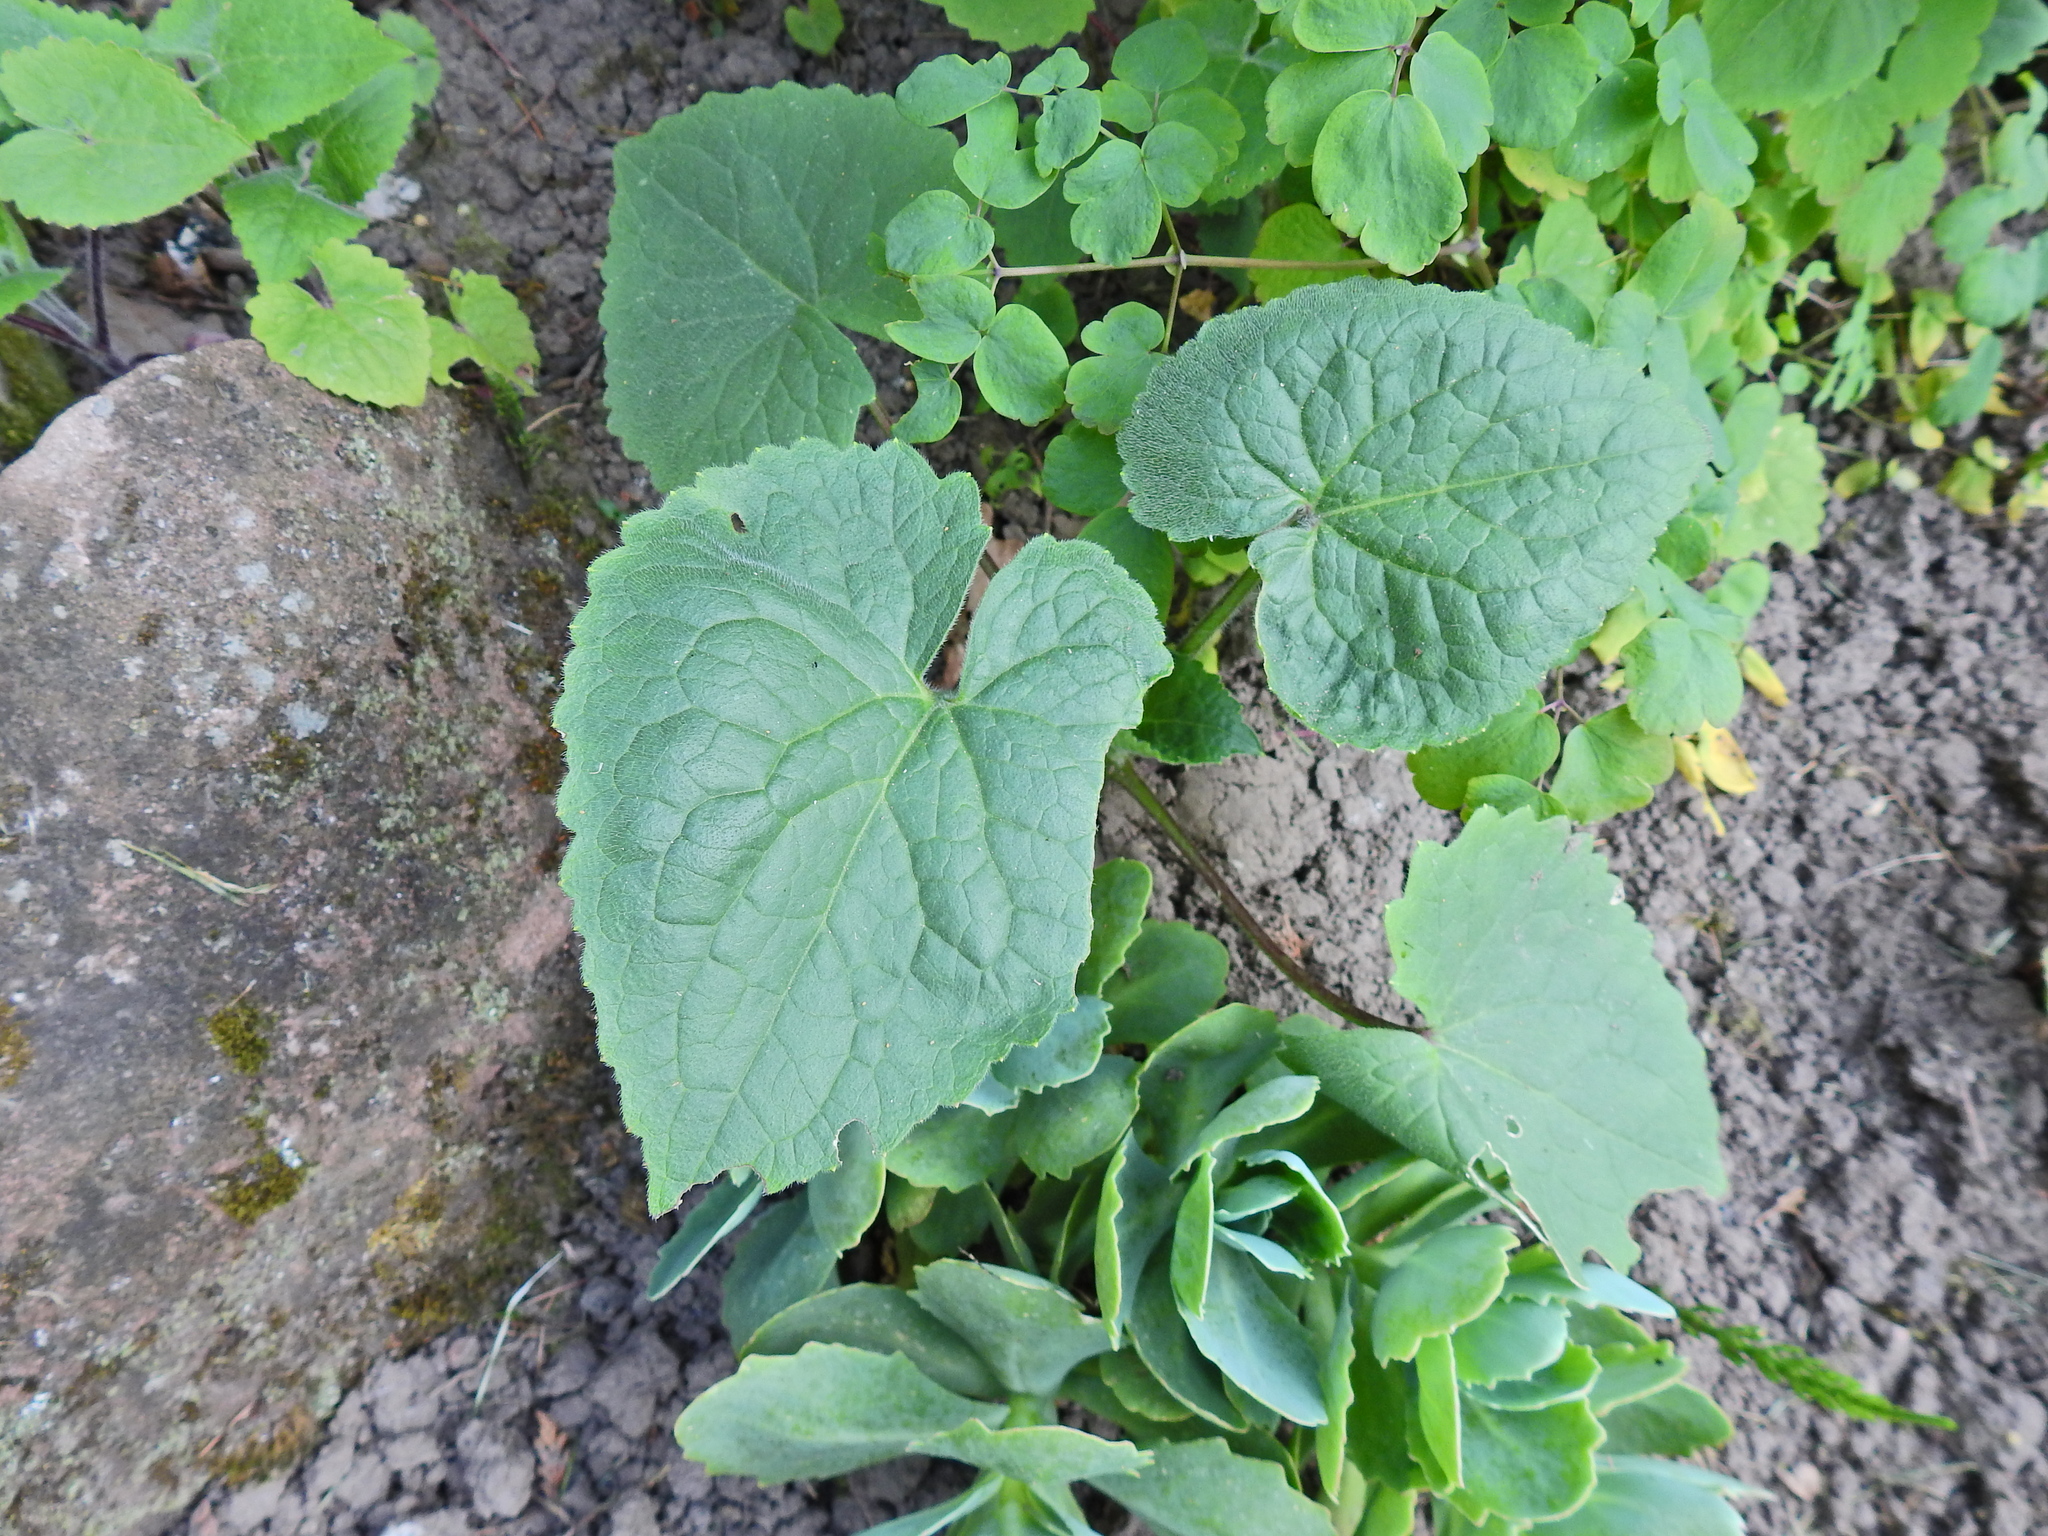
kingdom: Plantae
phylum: Tracheophyta
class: Magnoliopsida
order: Brassicales
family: Brassicaceae
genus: Lunaria
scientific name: Lunaria annua
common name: Honesty
